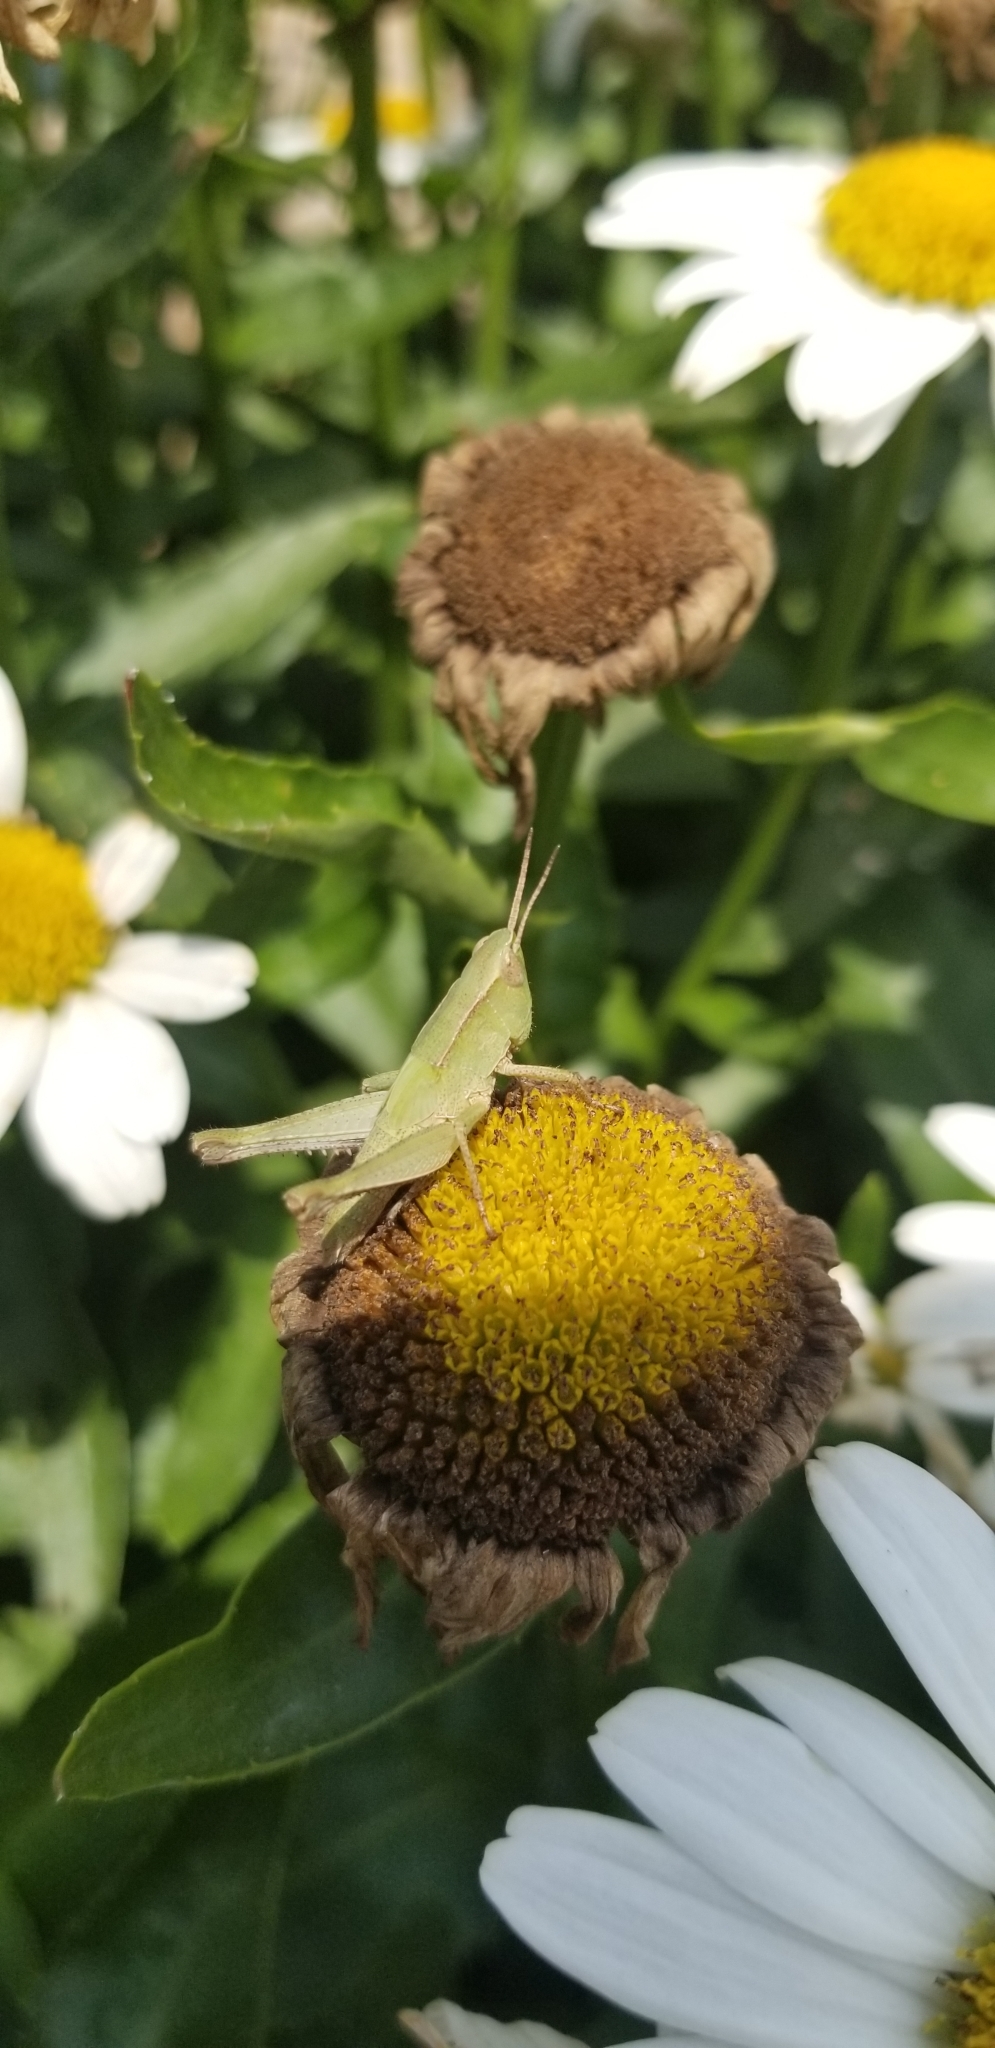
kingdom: Animalia
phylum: Arthropoda
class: Insecta
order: Orthoptera
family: Acrididae
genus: Dichromorpha
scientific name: Dichromorpha viridis
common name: Short-winged green grasshopper
